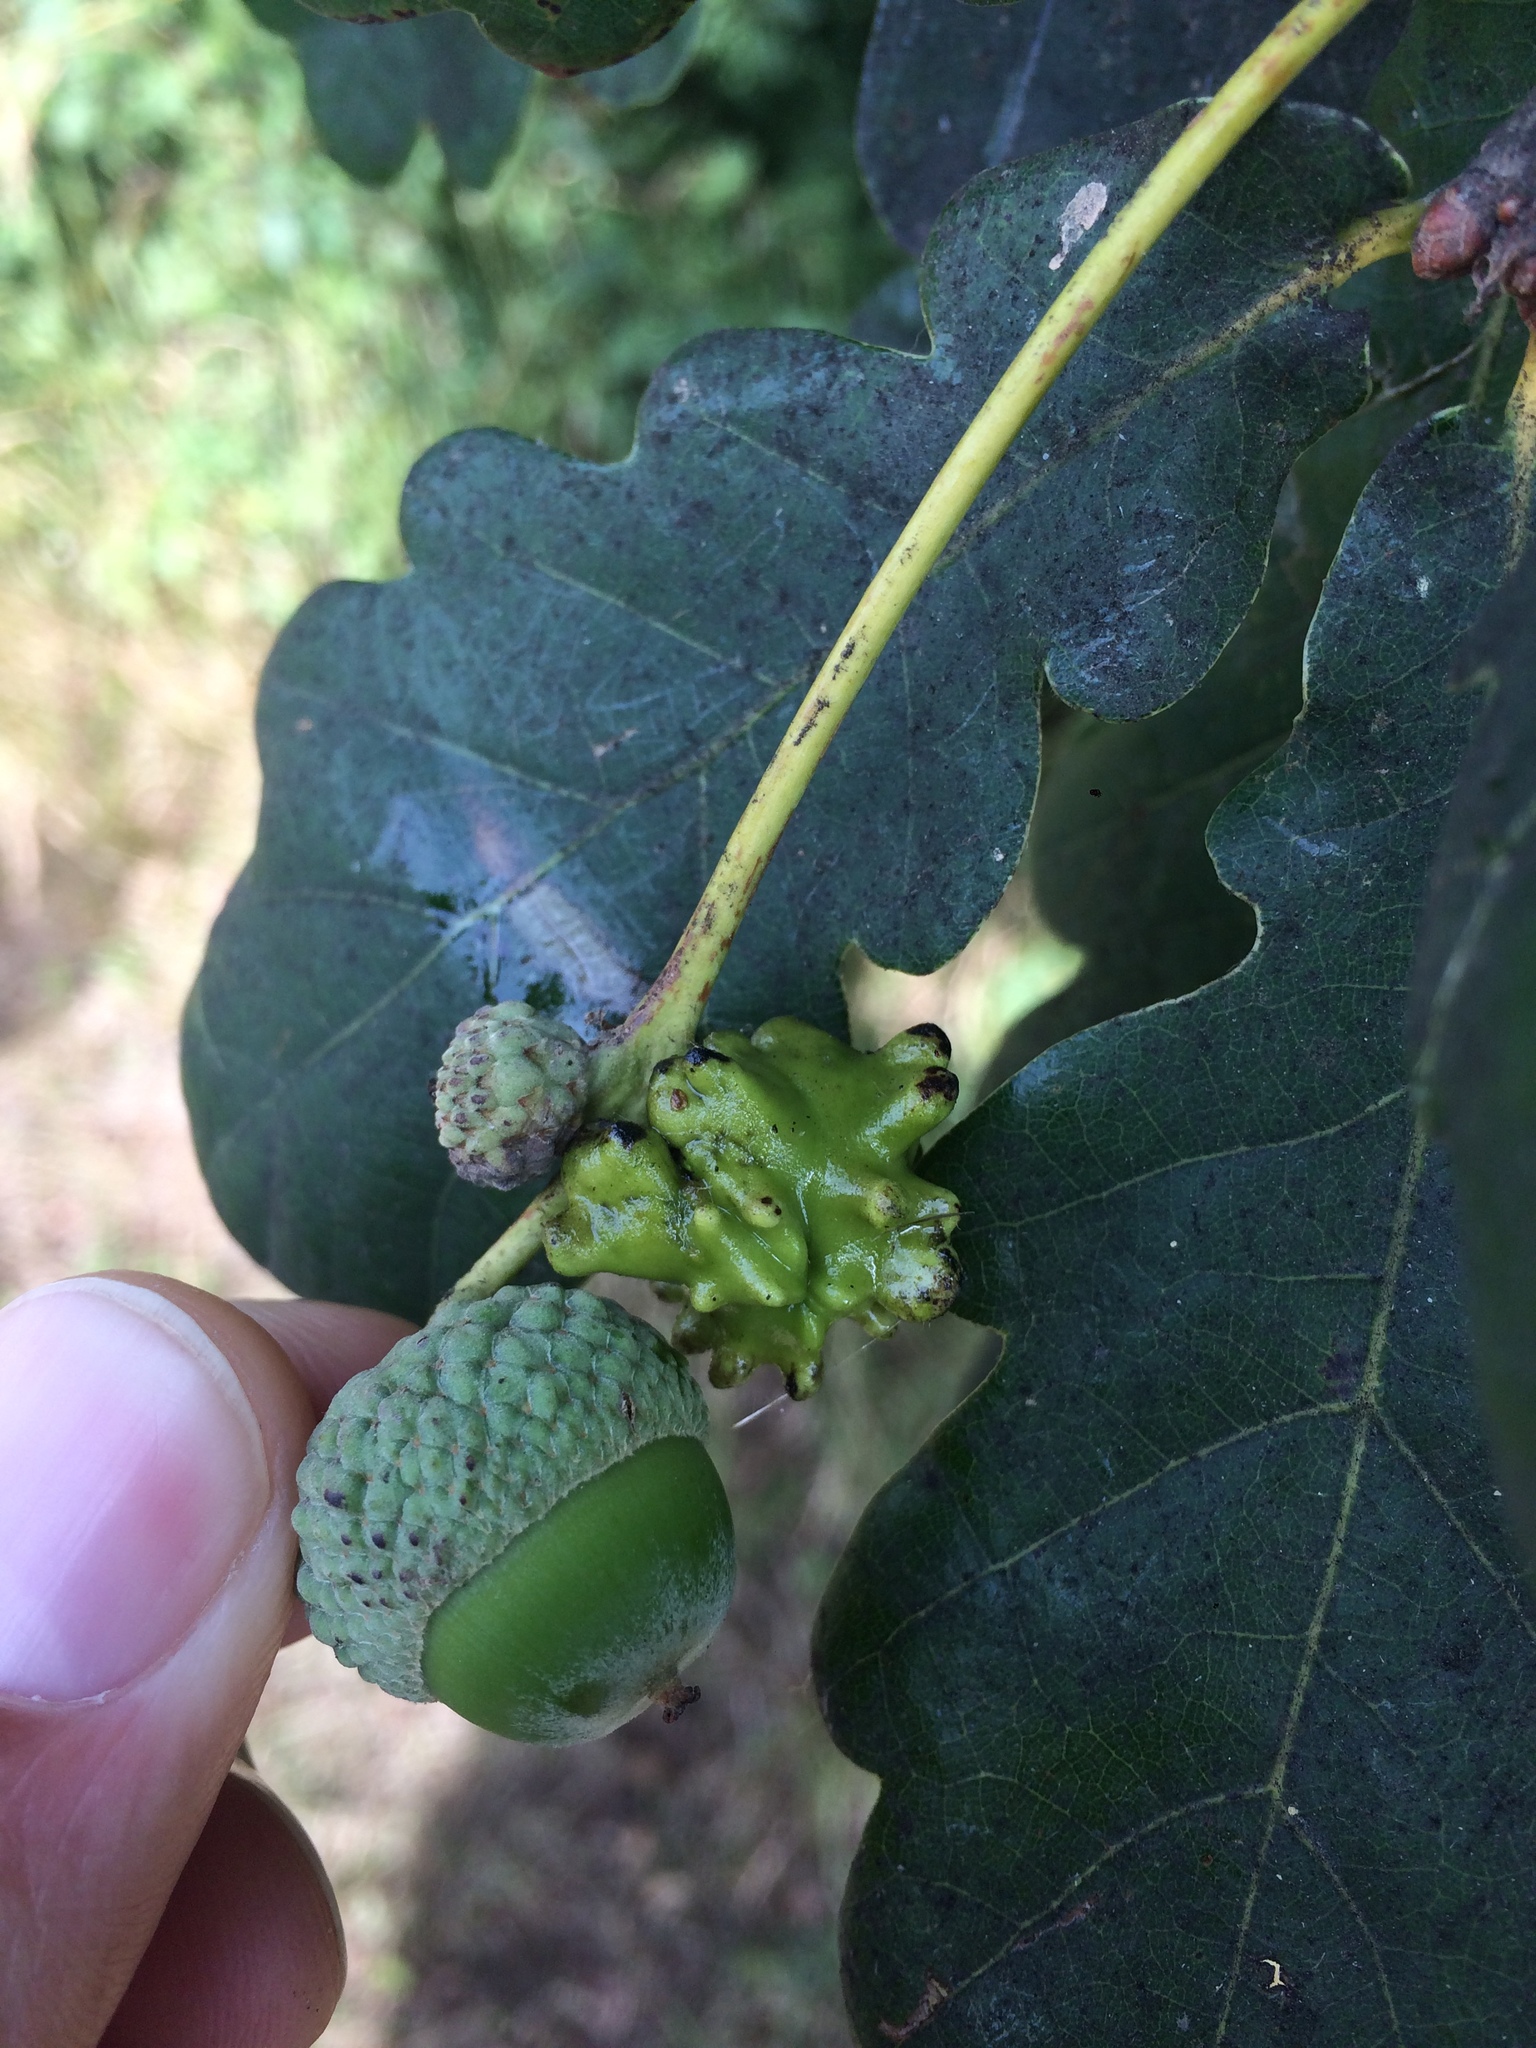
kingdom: Animalia
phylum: Arthropoda
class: Insecta
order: Hymenoptera
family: Cynipidae
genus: Andricus
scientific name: Andricus quercuscalicis
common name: Knopper gall
